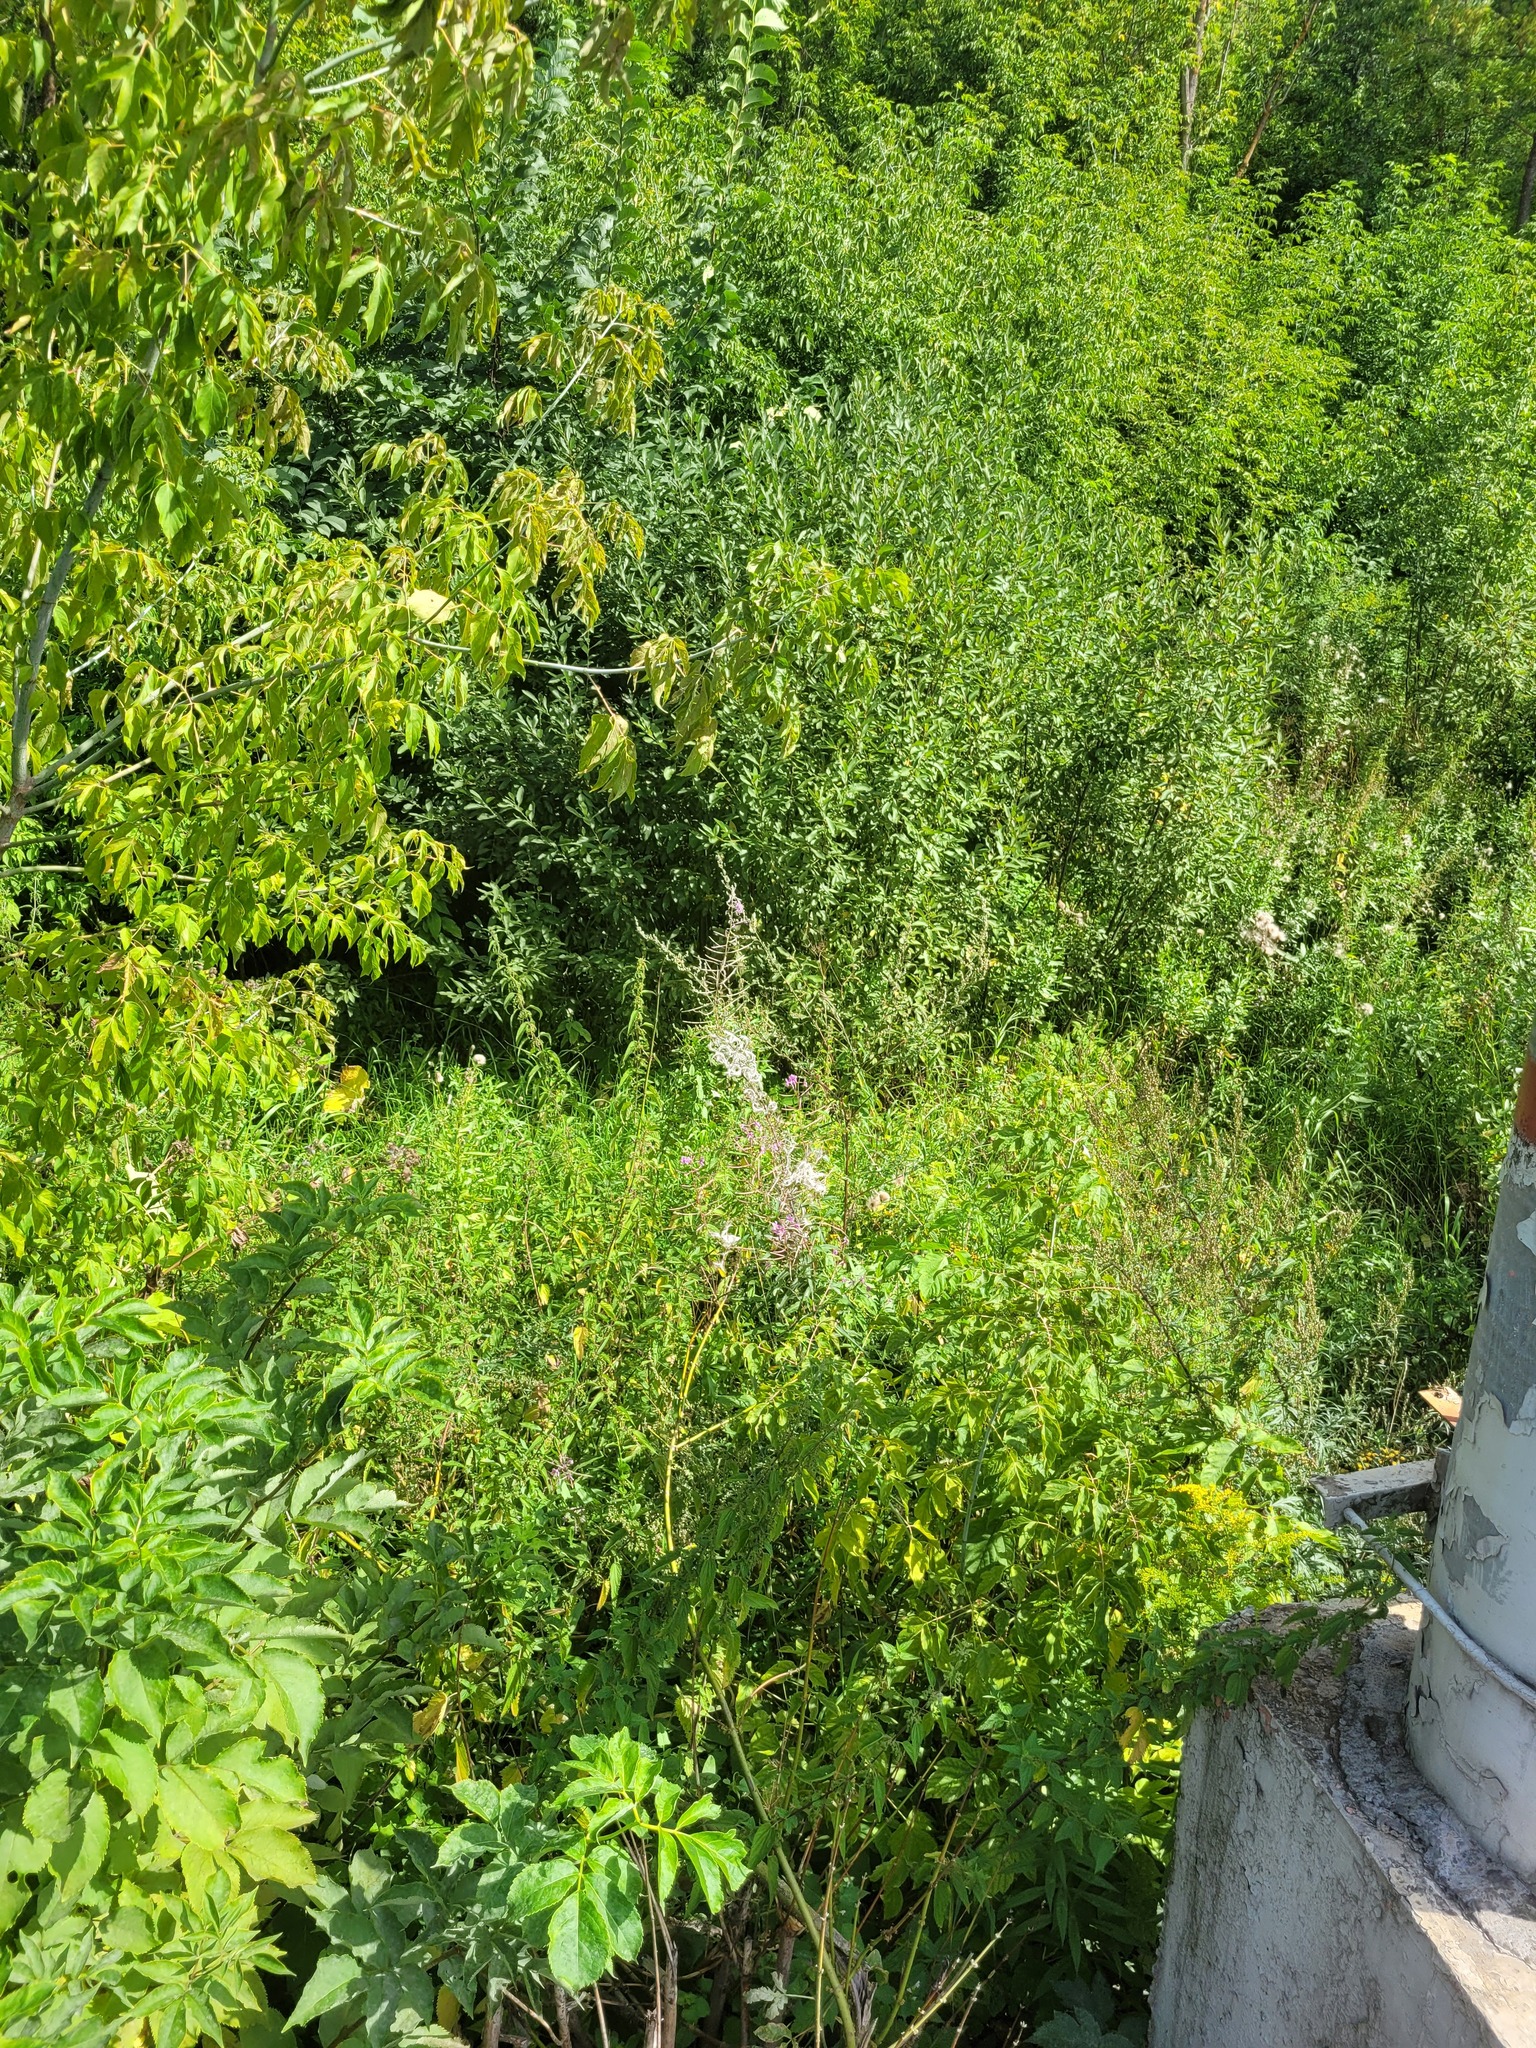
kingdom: Plantae
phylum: Tracheophyta
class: Magnoliopsida
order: Myrtales
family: Onagraceae
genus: Chamaenerion
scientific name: Chamaenerion angustifolium
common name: Fireweed
